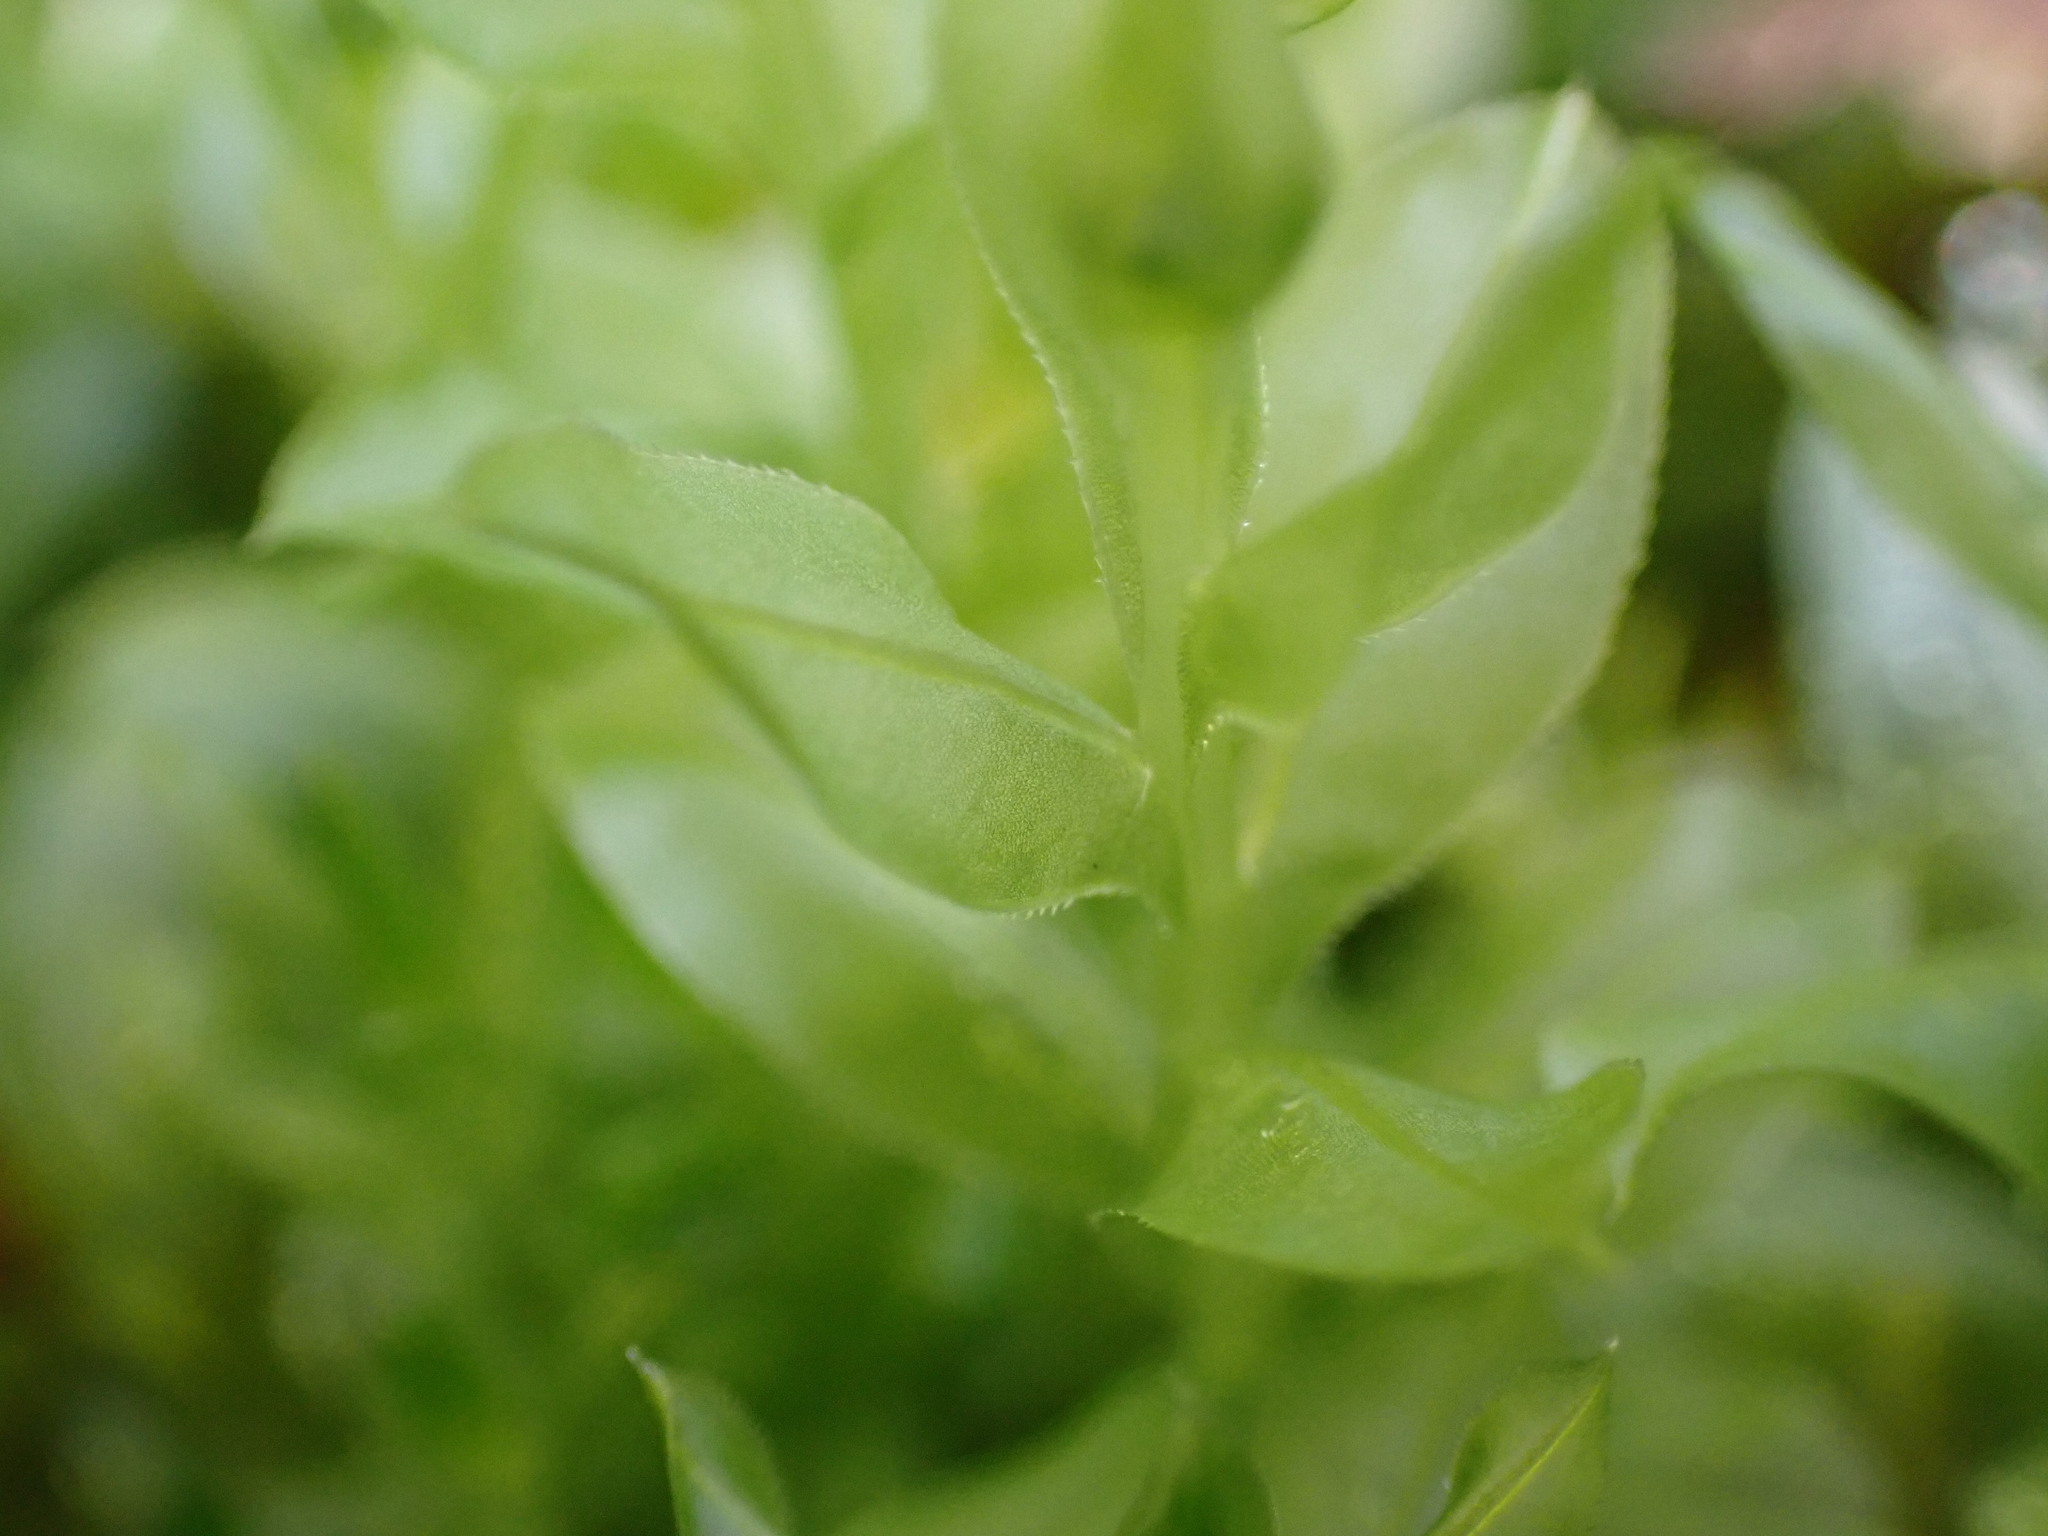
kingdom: Plantae
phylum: Bryophyta
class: Bryopsida
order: Bryales
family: Mniaceae
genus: Plagiomnium
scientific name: Plagiomnium insigne
